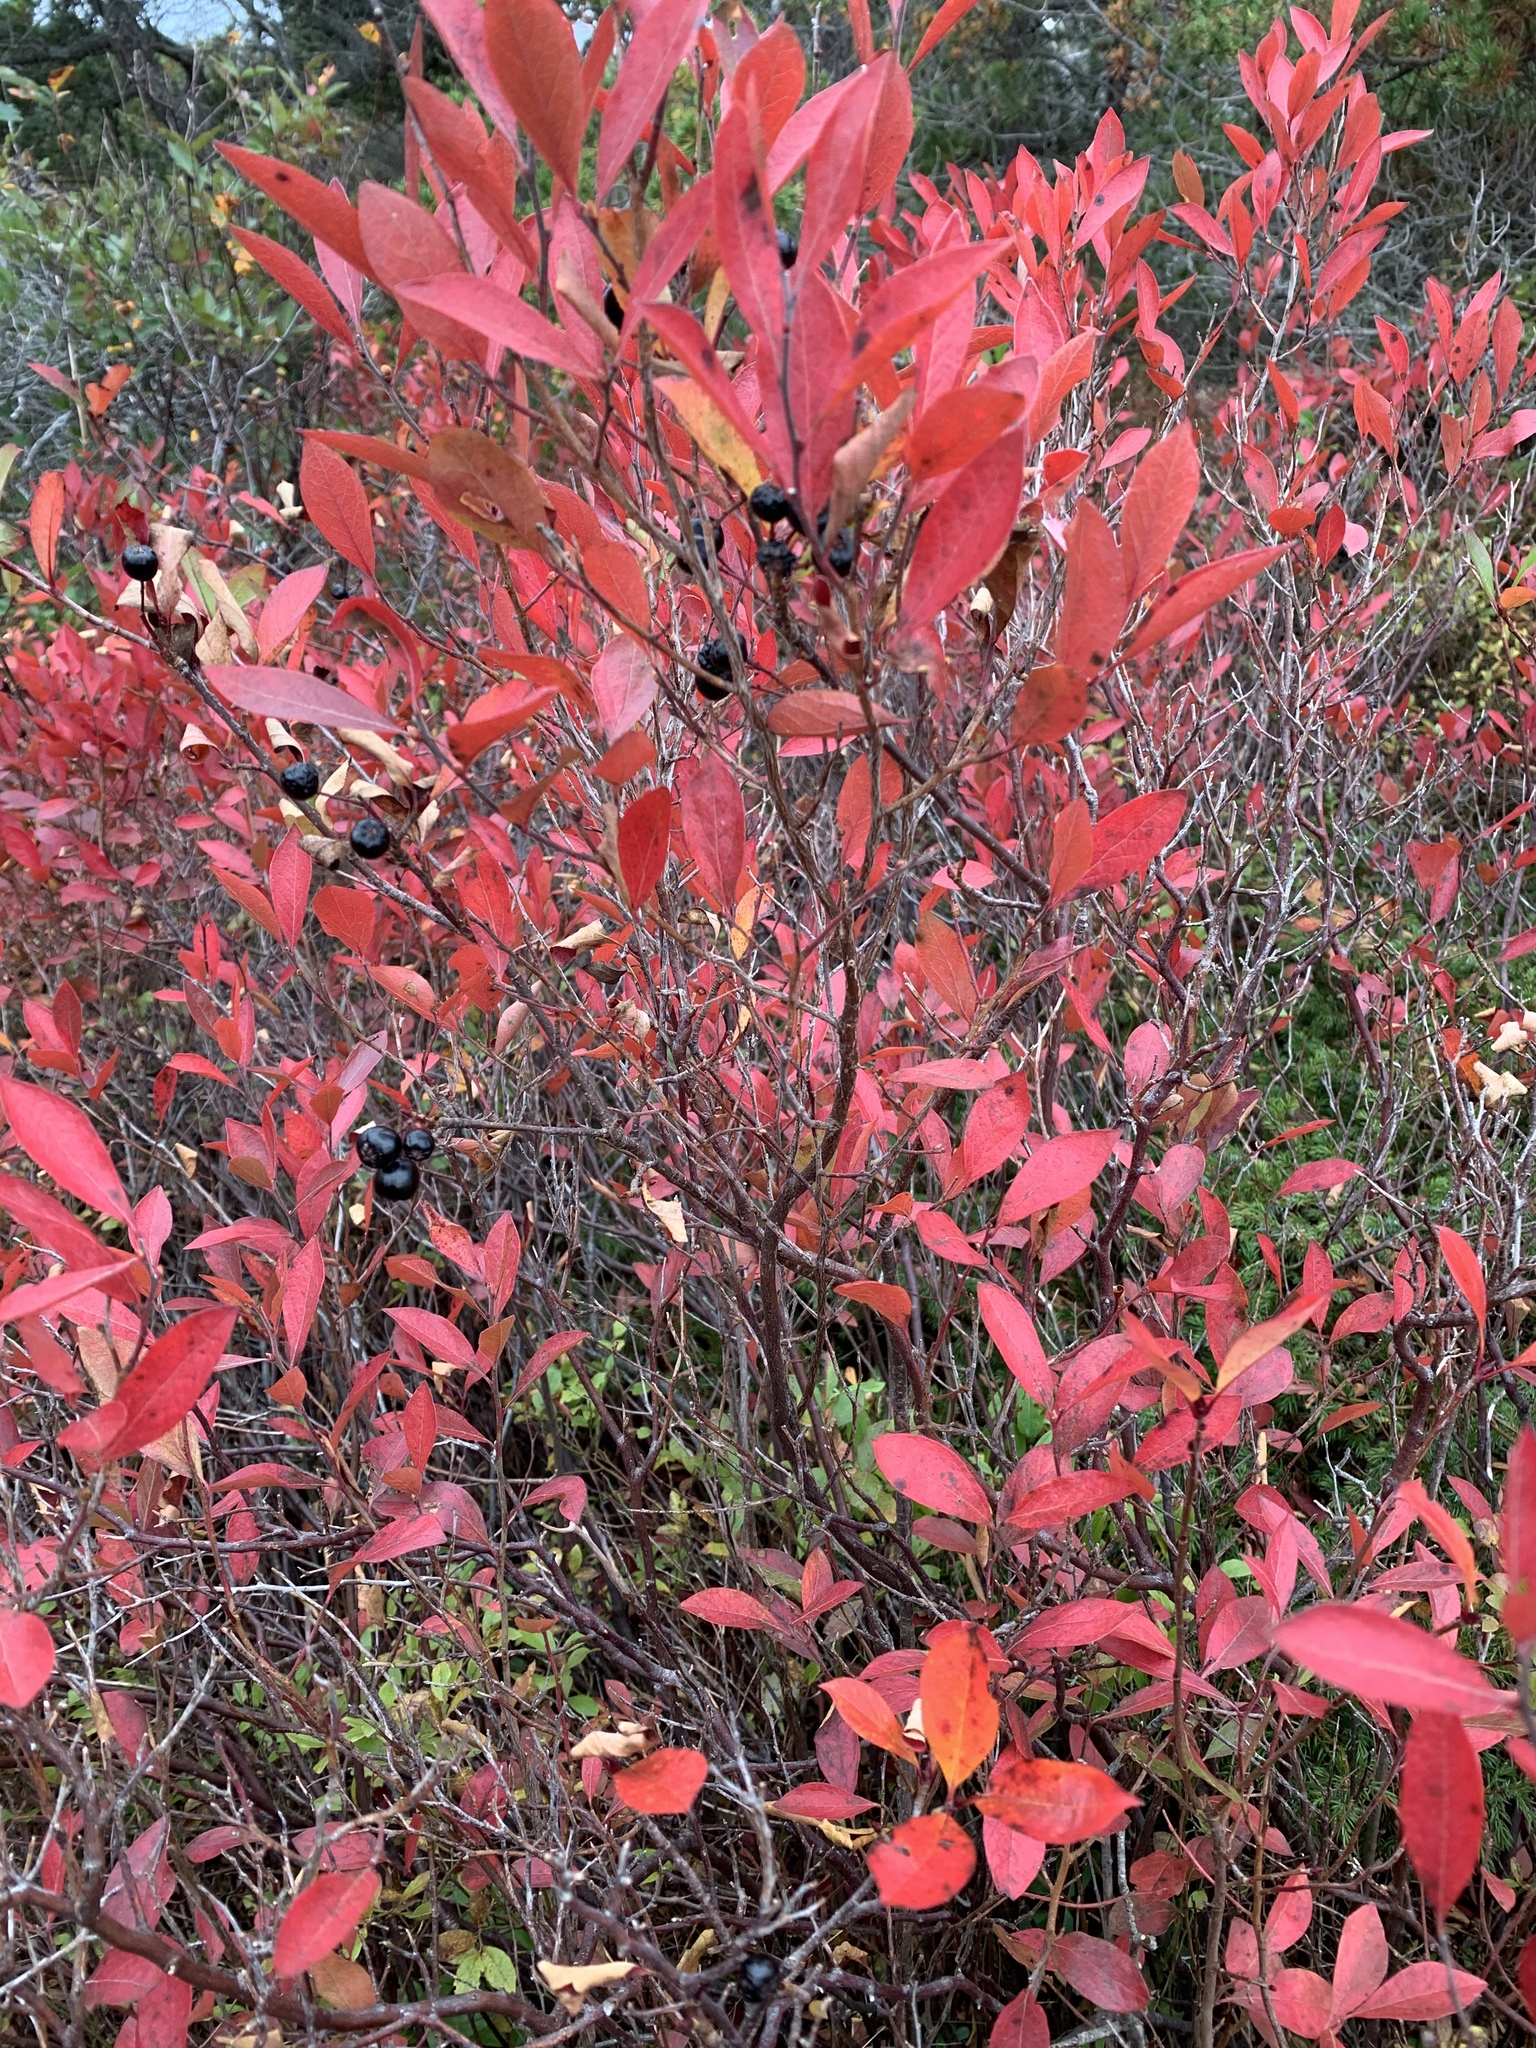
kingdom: Plantae
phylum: Tracheophyta
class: Magnoliopsida
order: Ericales
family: Ericaceae
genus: Gaylussacia
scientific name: Gaylussacia baccata
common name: Black huckleberry
